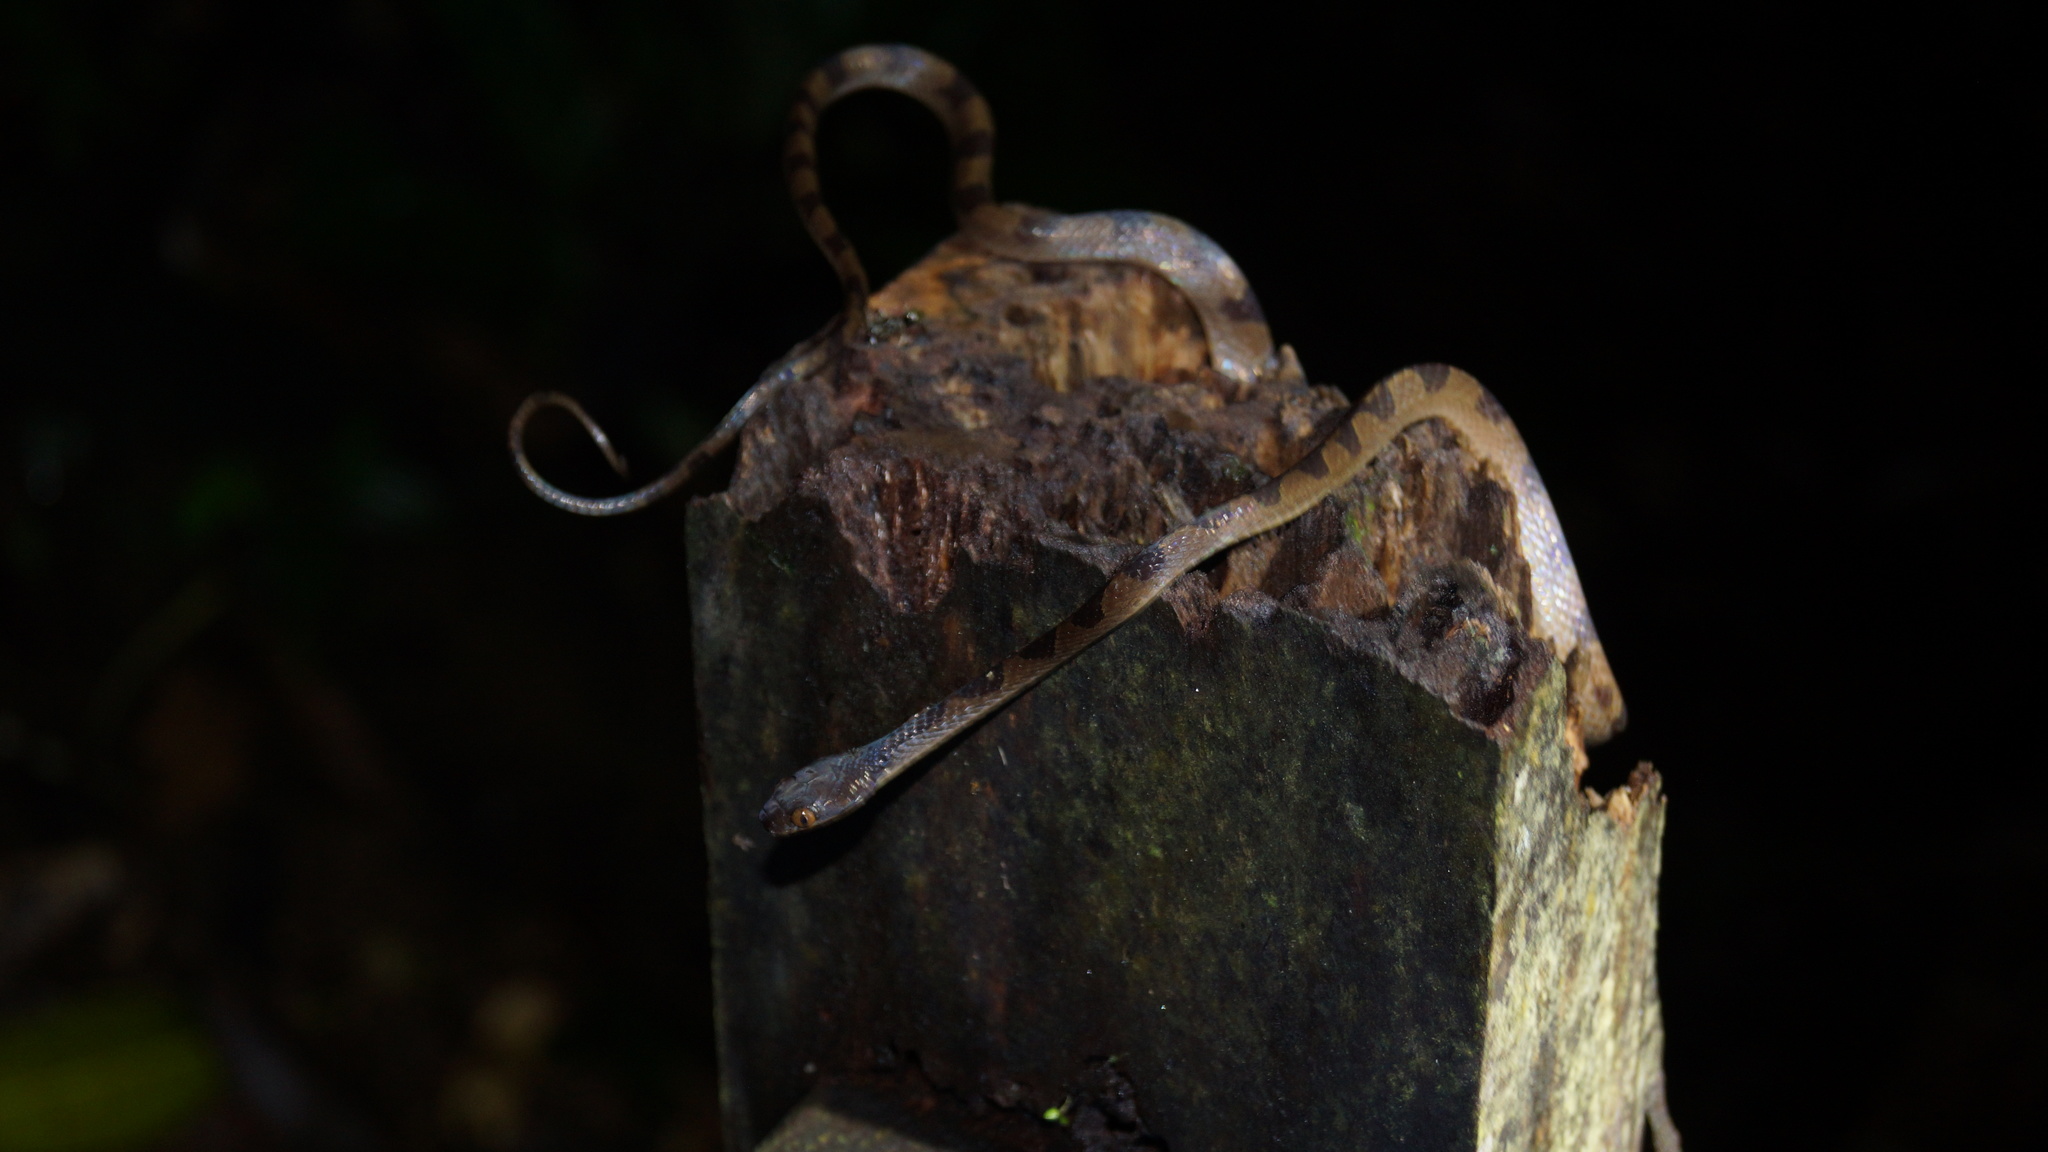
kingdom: Animalia
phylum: Chordata
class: Squamata
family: Colubridae
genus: Leptodeira
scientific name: Leptodeira annulata
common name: Banded cat-eyed snake
